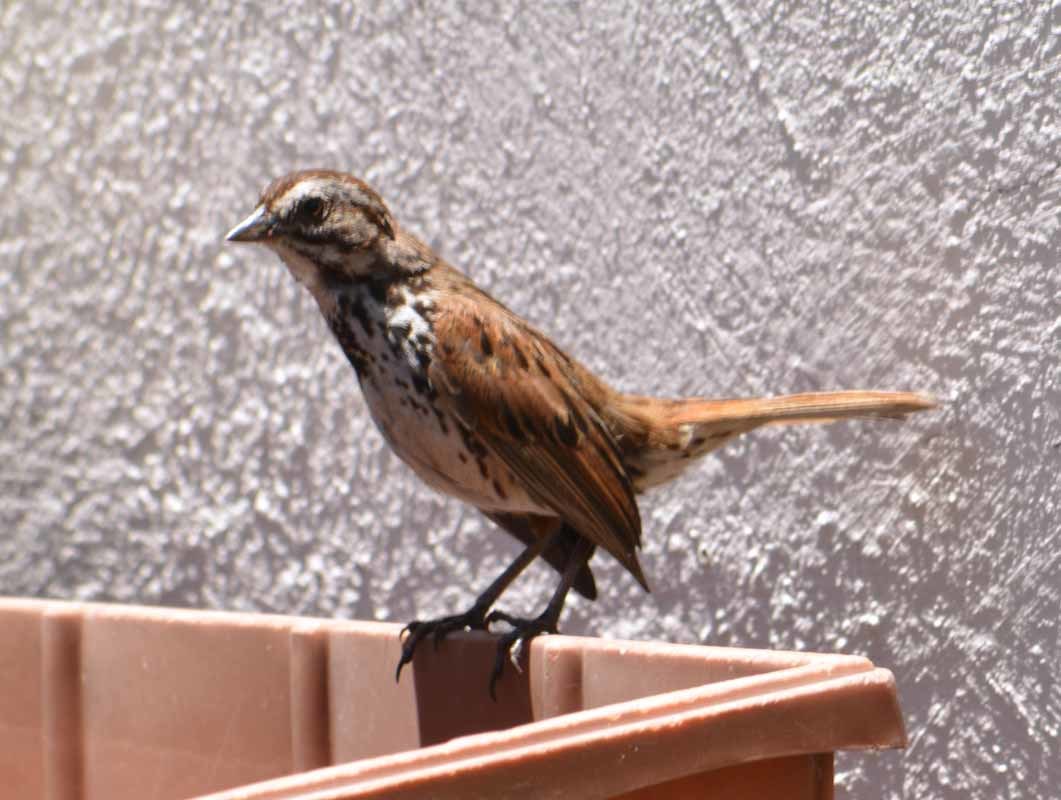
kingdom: Animalia
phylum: Chordata
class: Aves
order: Passeriformes
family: Passerellidae
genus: Melospiza
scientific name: Melospiza melodia
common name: Song sparrow
